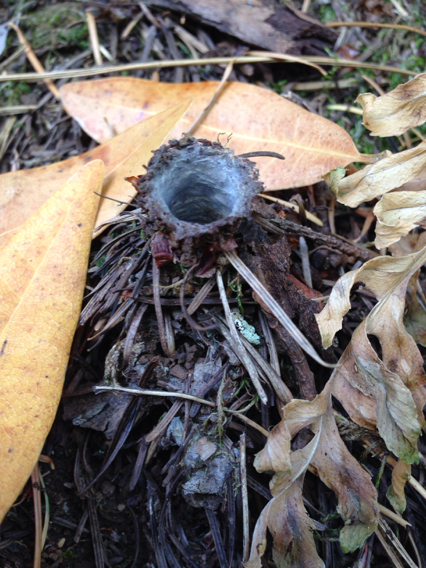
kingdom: Animalia
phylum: Arthropoda
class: Arachnida
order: Araneae
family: Antrodiaetidae
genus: Atypoides
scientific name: Atypoides riversi
